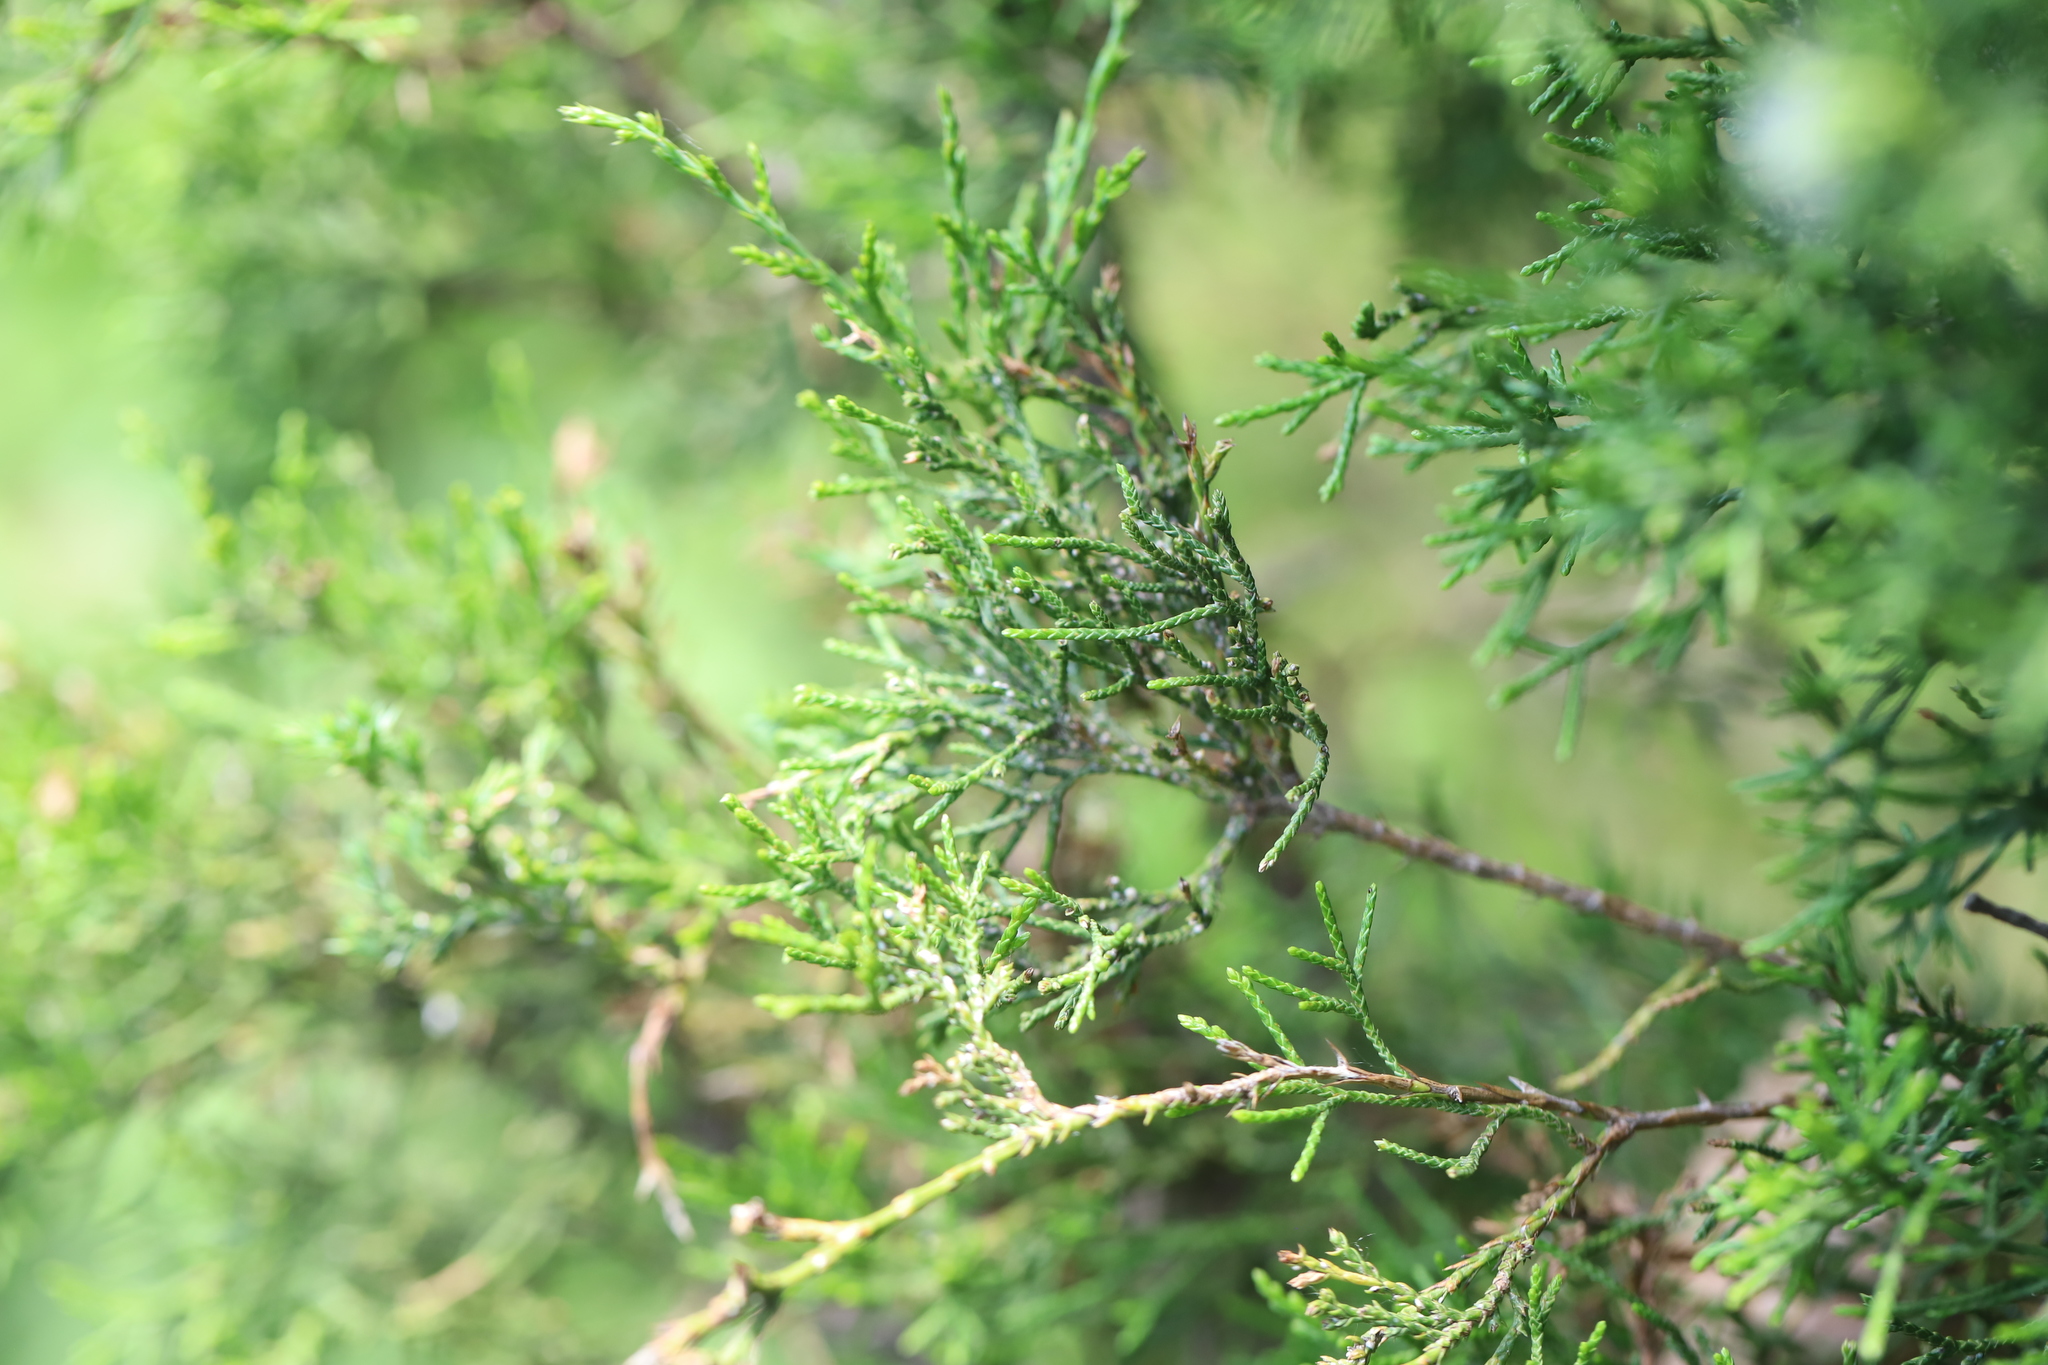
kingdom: Plantae
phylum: Tracheophyta
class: Pinopsida
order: Pinales
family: Cupressaceae
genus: Juniperus
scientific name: Juniperus virginiana
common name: Red juniper
